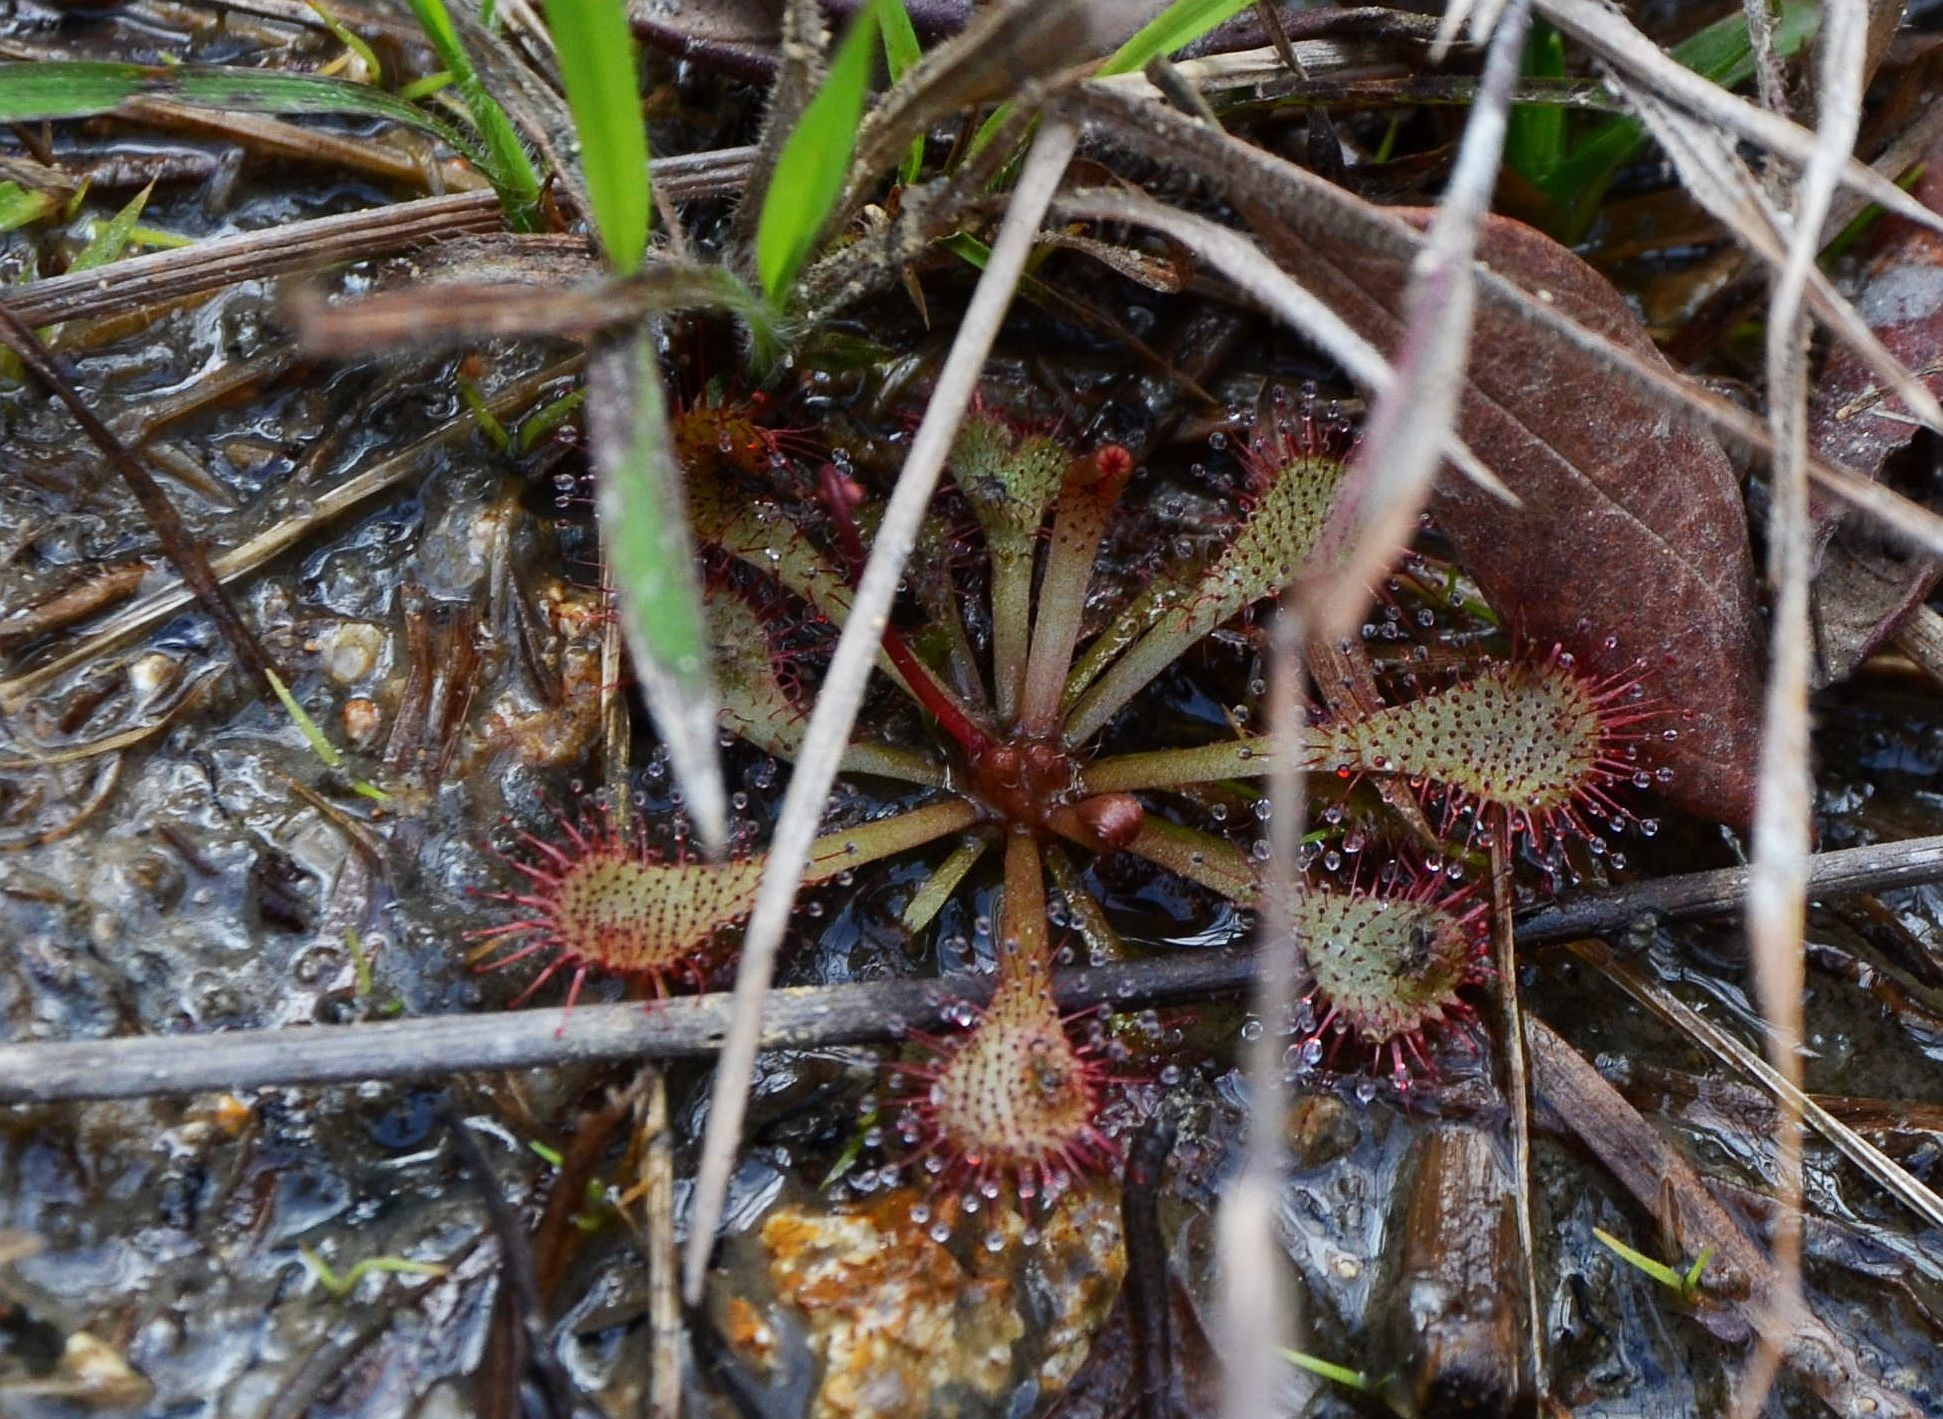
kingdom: Plantae
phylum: Tracheophyta
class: Magnoliopsida
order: Caryophyllales
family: Droseraceae
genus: Drosera
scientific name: Drosera spatulata
